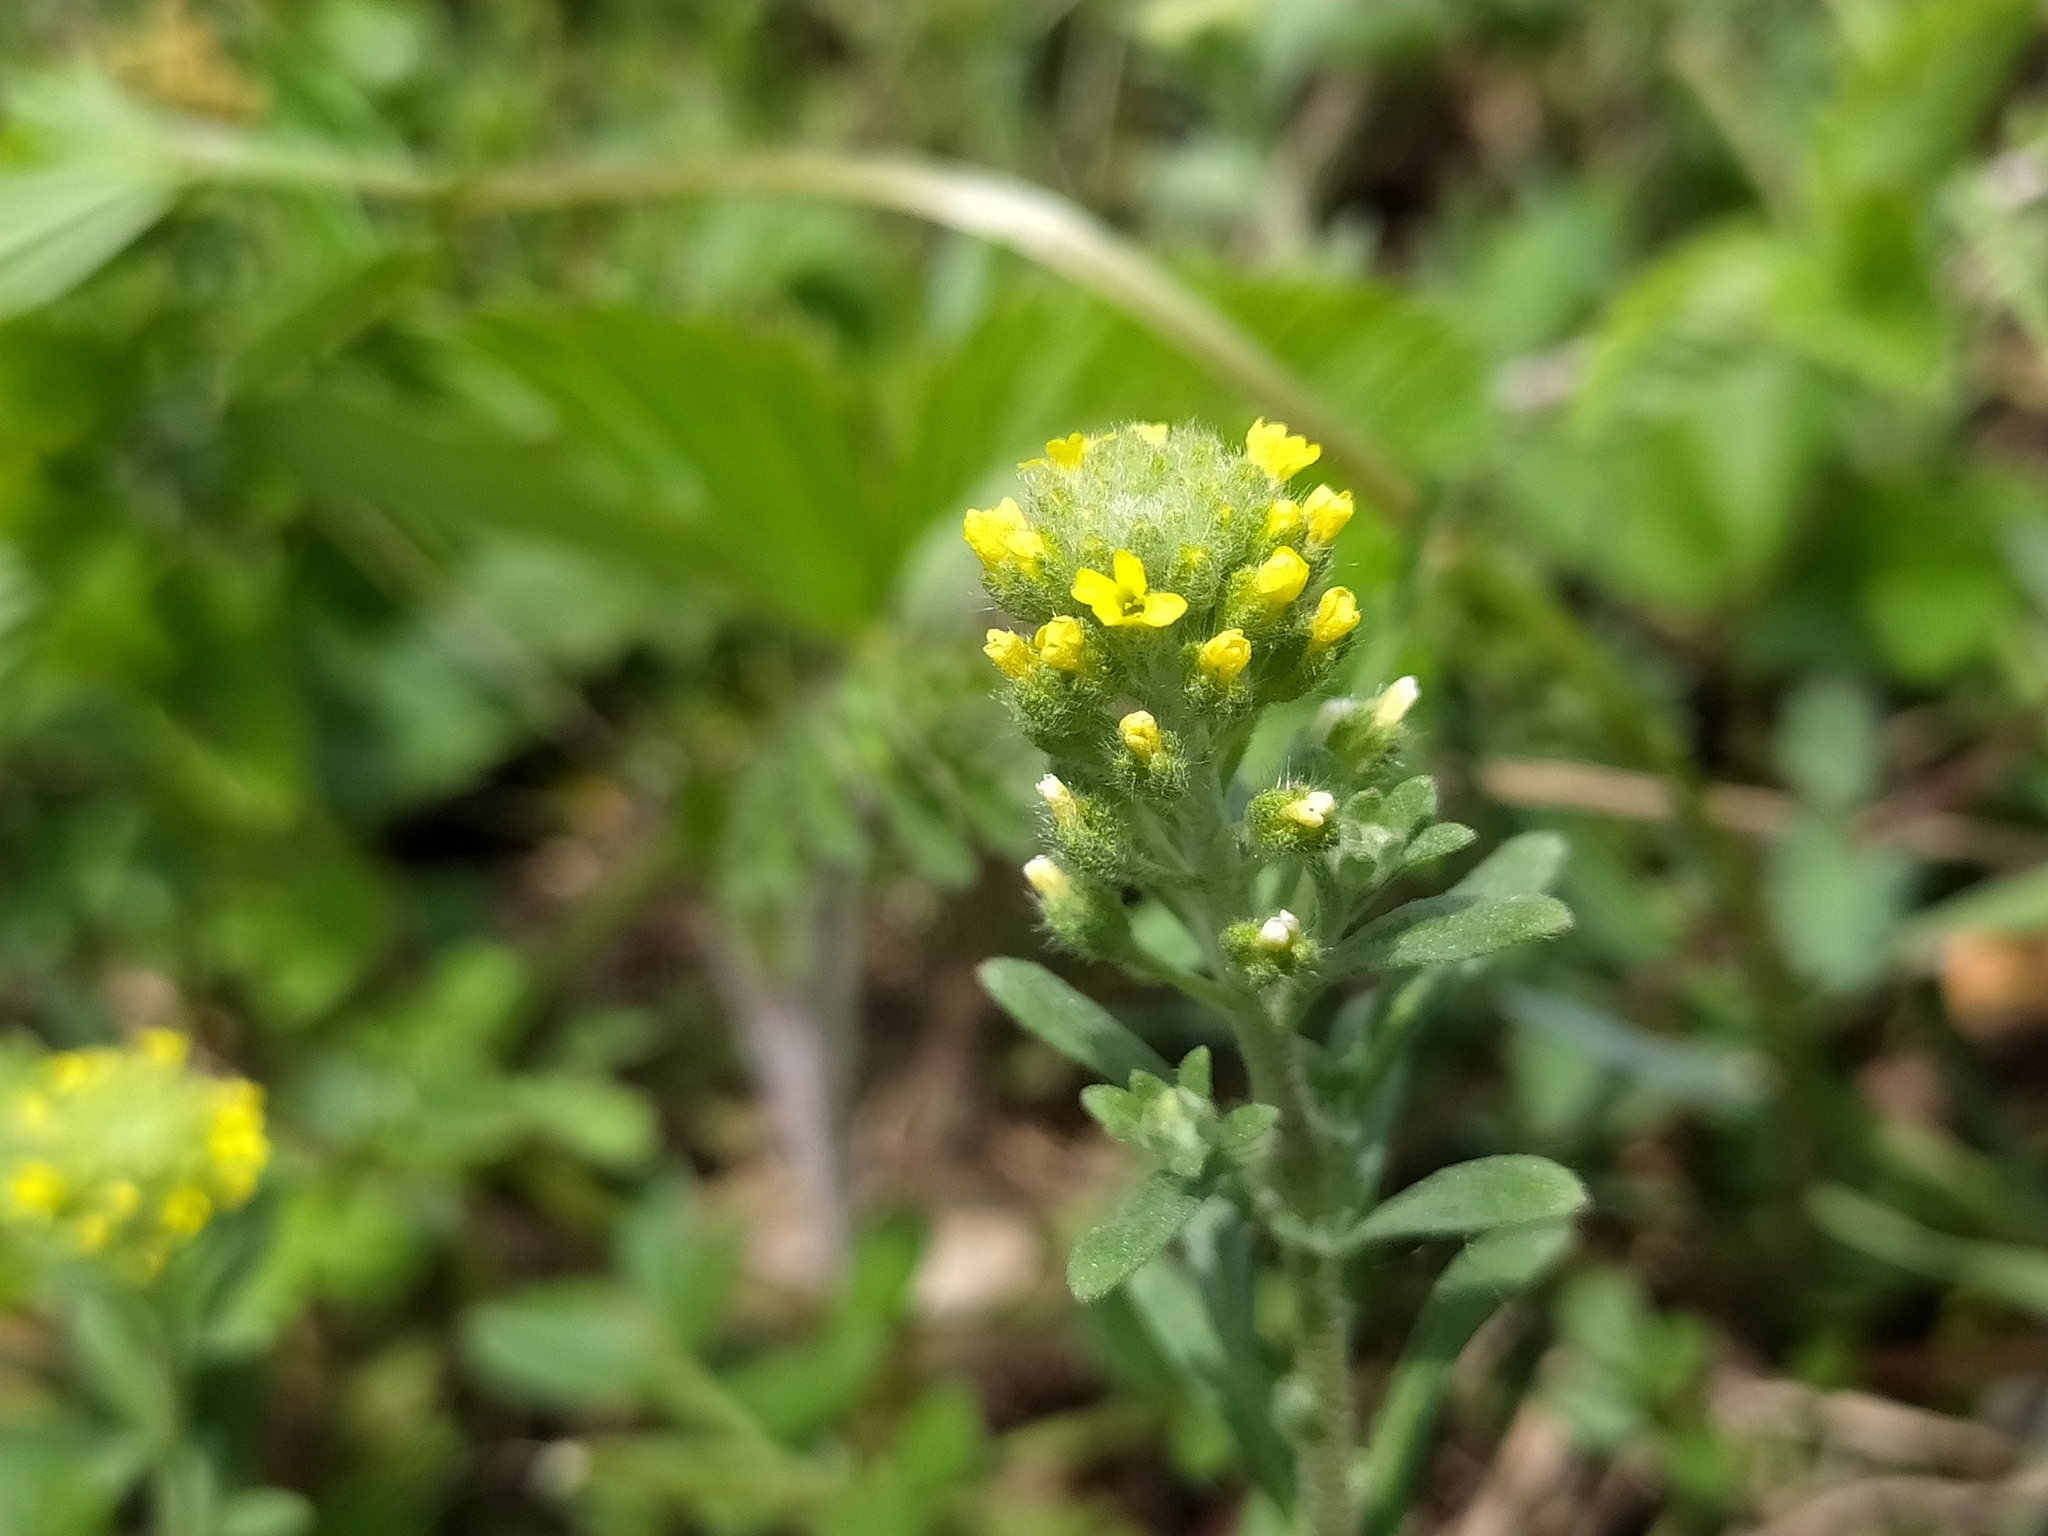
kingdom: Plantae
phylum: Tracheophyta
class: Magnoliopsida
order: Brassicales
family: Brassicaceae
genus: Alyssum
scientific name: Alyssum alyssoides
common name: Small alison
